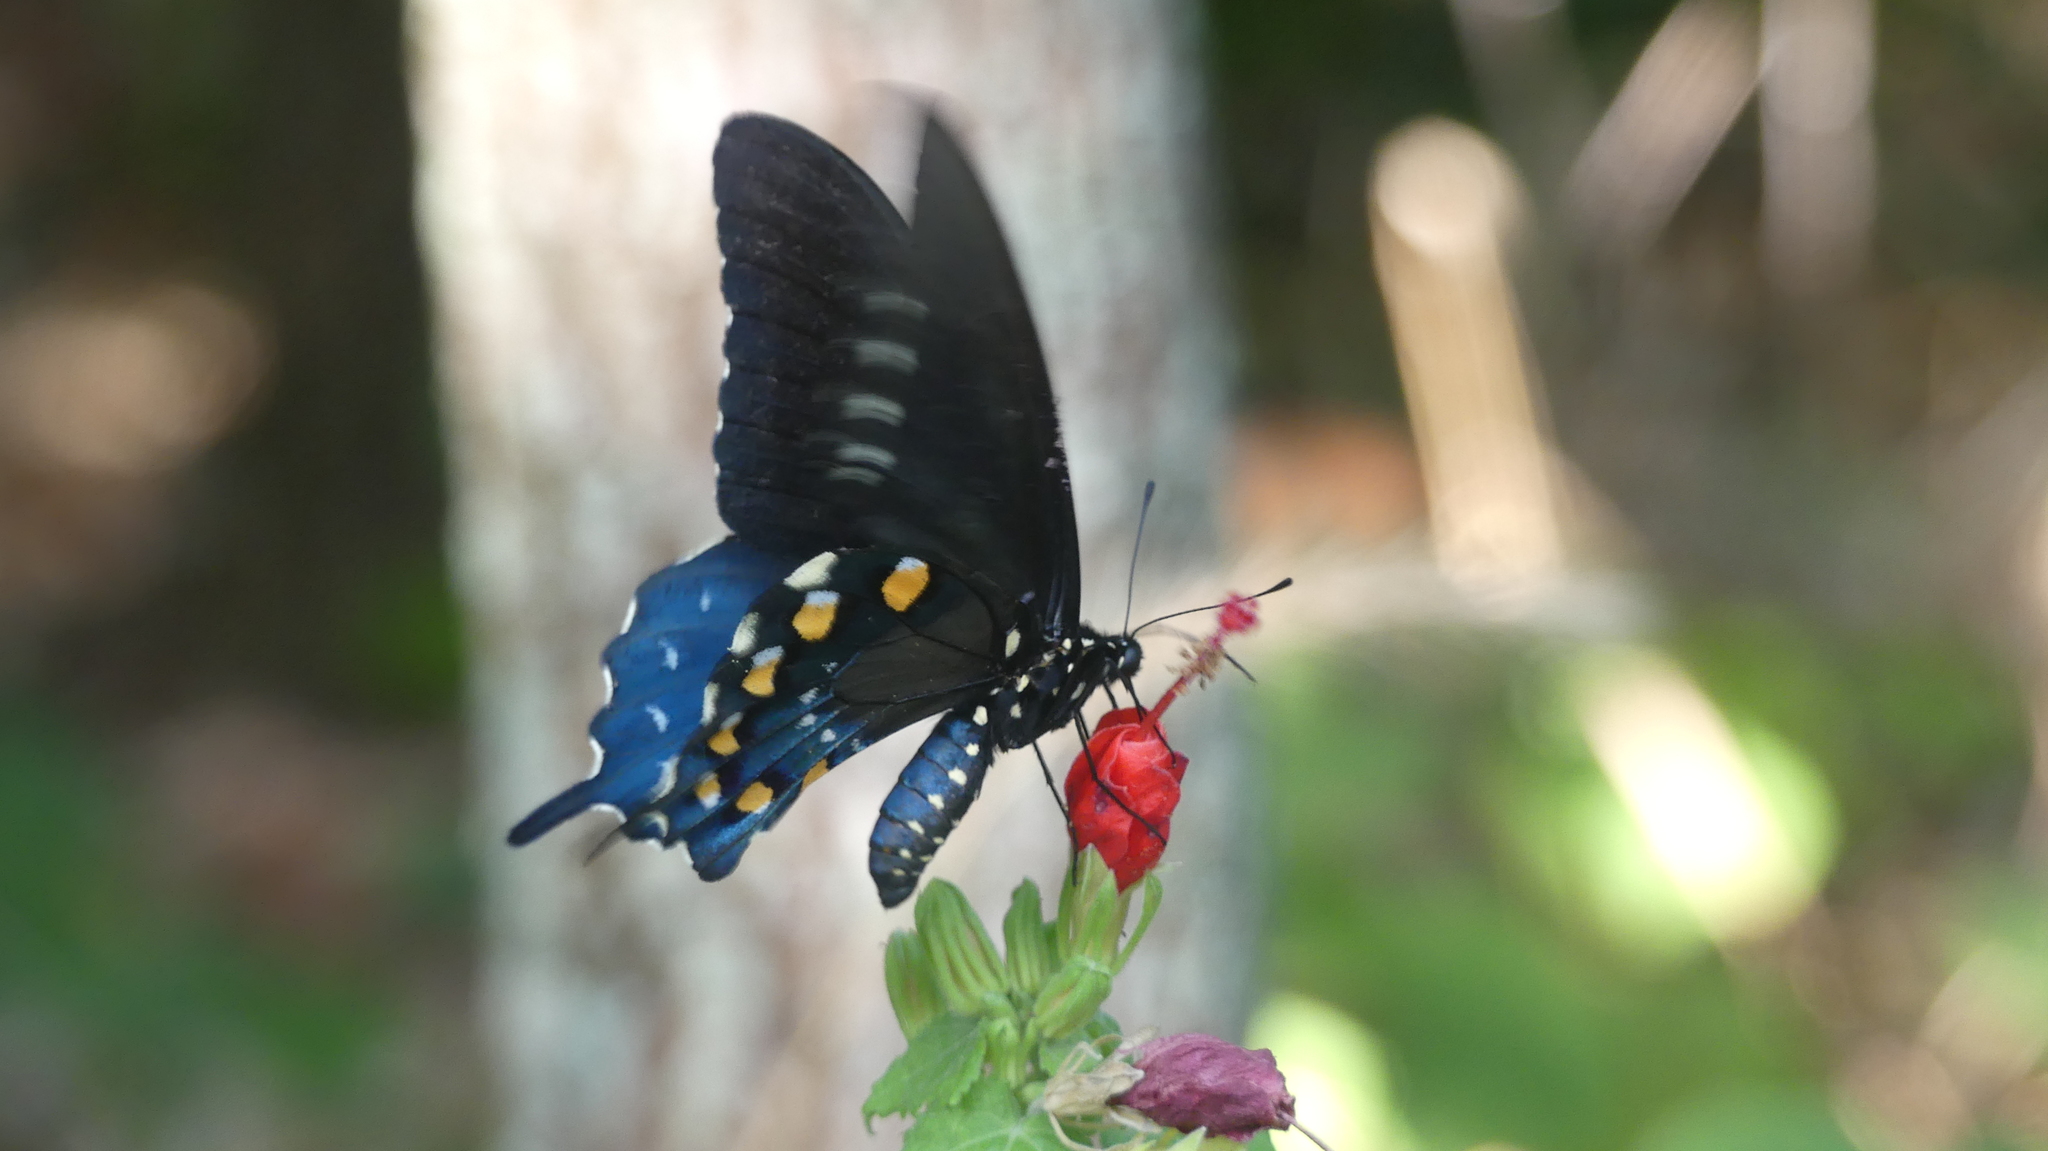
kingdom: Animalia
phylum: Arthropoda
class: Insecta
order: Lepidoptera
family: Papilionidae
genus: Battus
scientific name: Battus philenor
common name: Pipevine swallowtail
